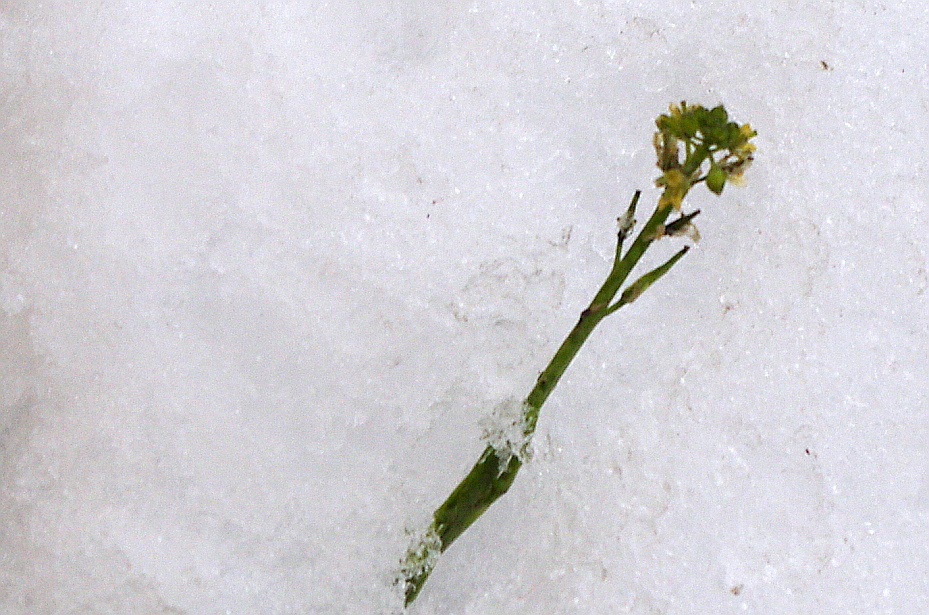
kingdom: Plantae
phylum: Tracheophyta
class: Magnoliopsida
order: Brassicales
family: Brassicaceae
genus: Sisymbrium
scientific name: Sisymbrium officinale
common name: Hedge mustard
